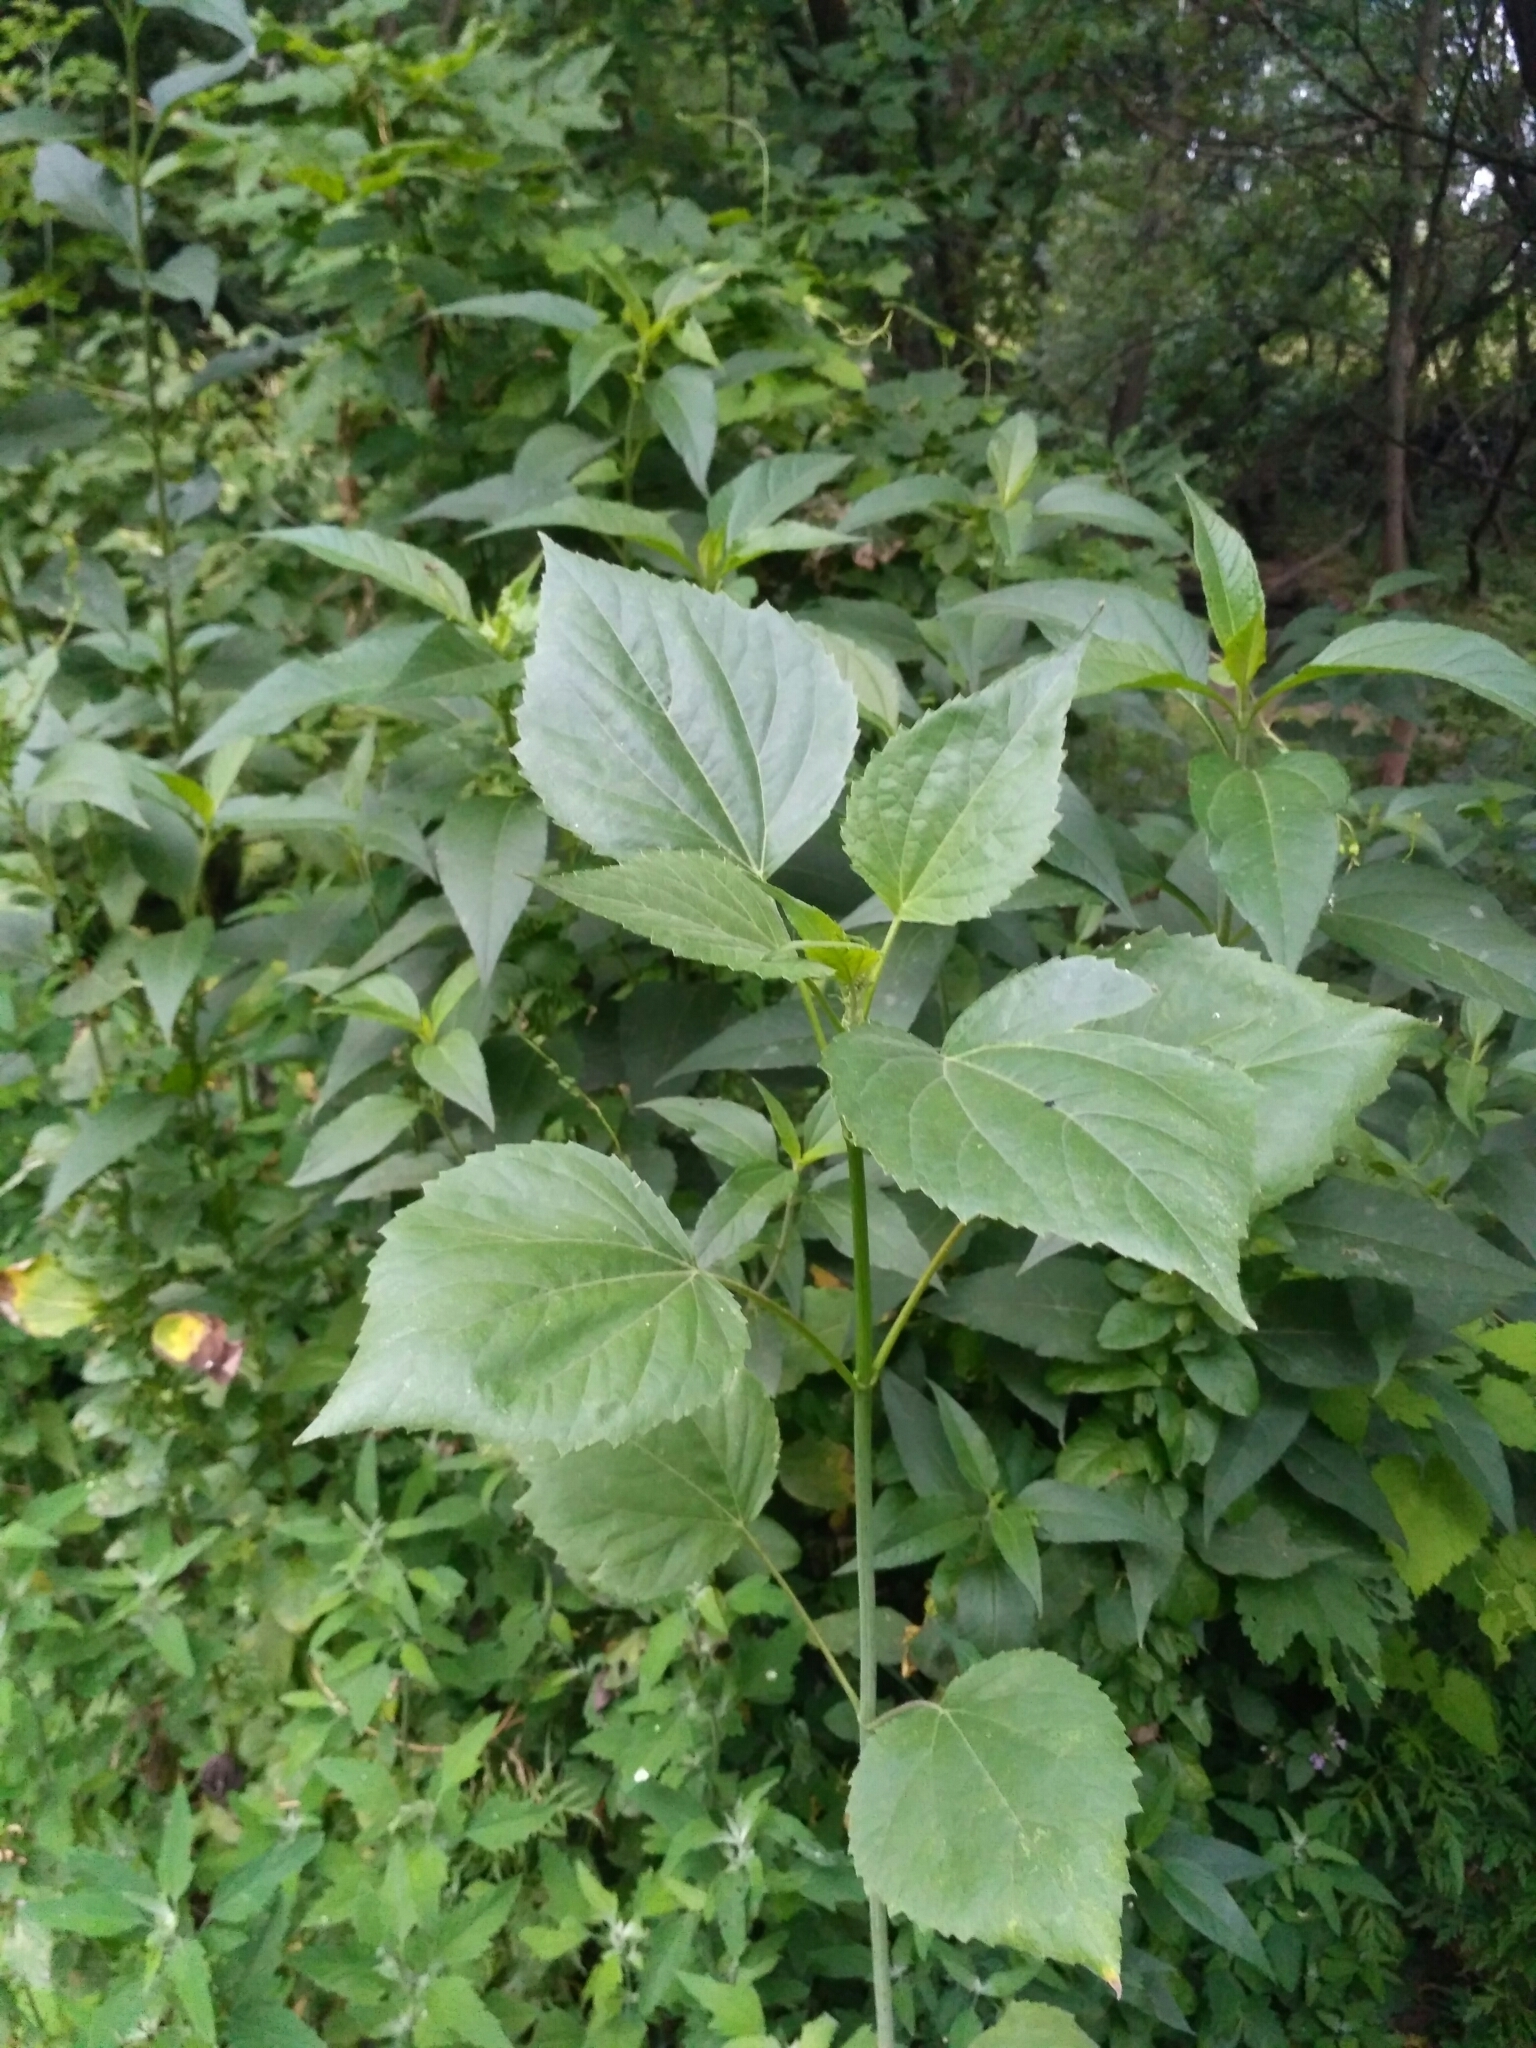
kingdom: Plantae
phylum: Tracheophyta
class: Magnoliopsida
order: Asterales
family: Asteraceae
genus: Cyclachaena
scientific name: Cyclachaena xanthiifolia
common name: Giant sumpweed
